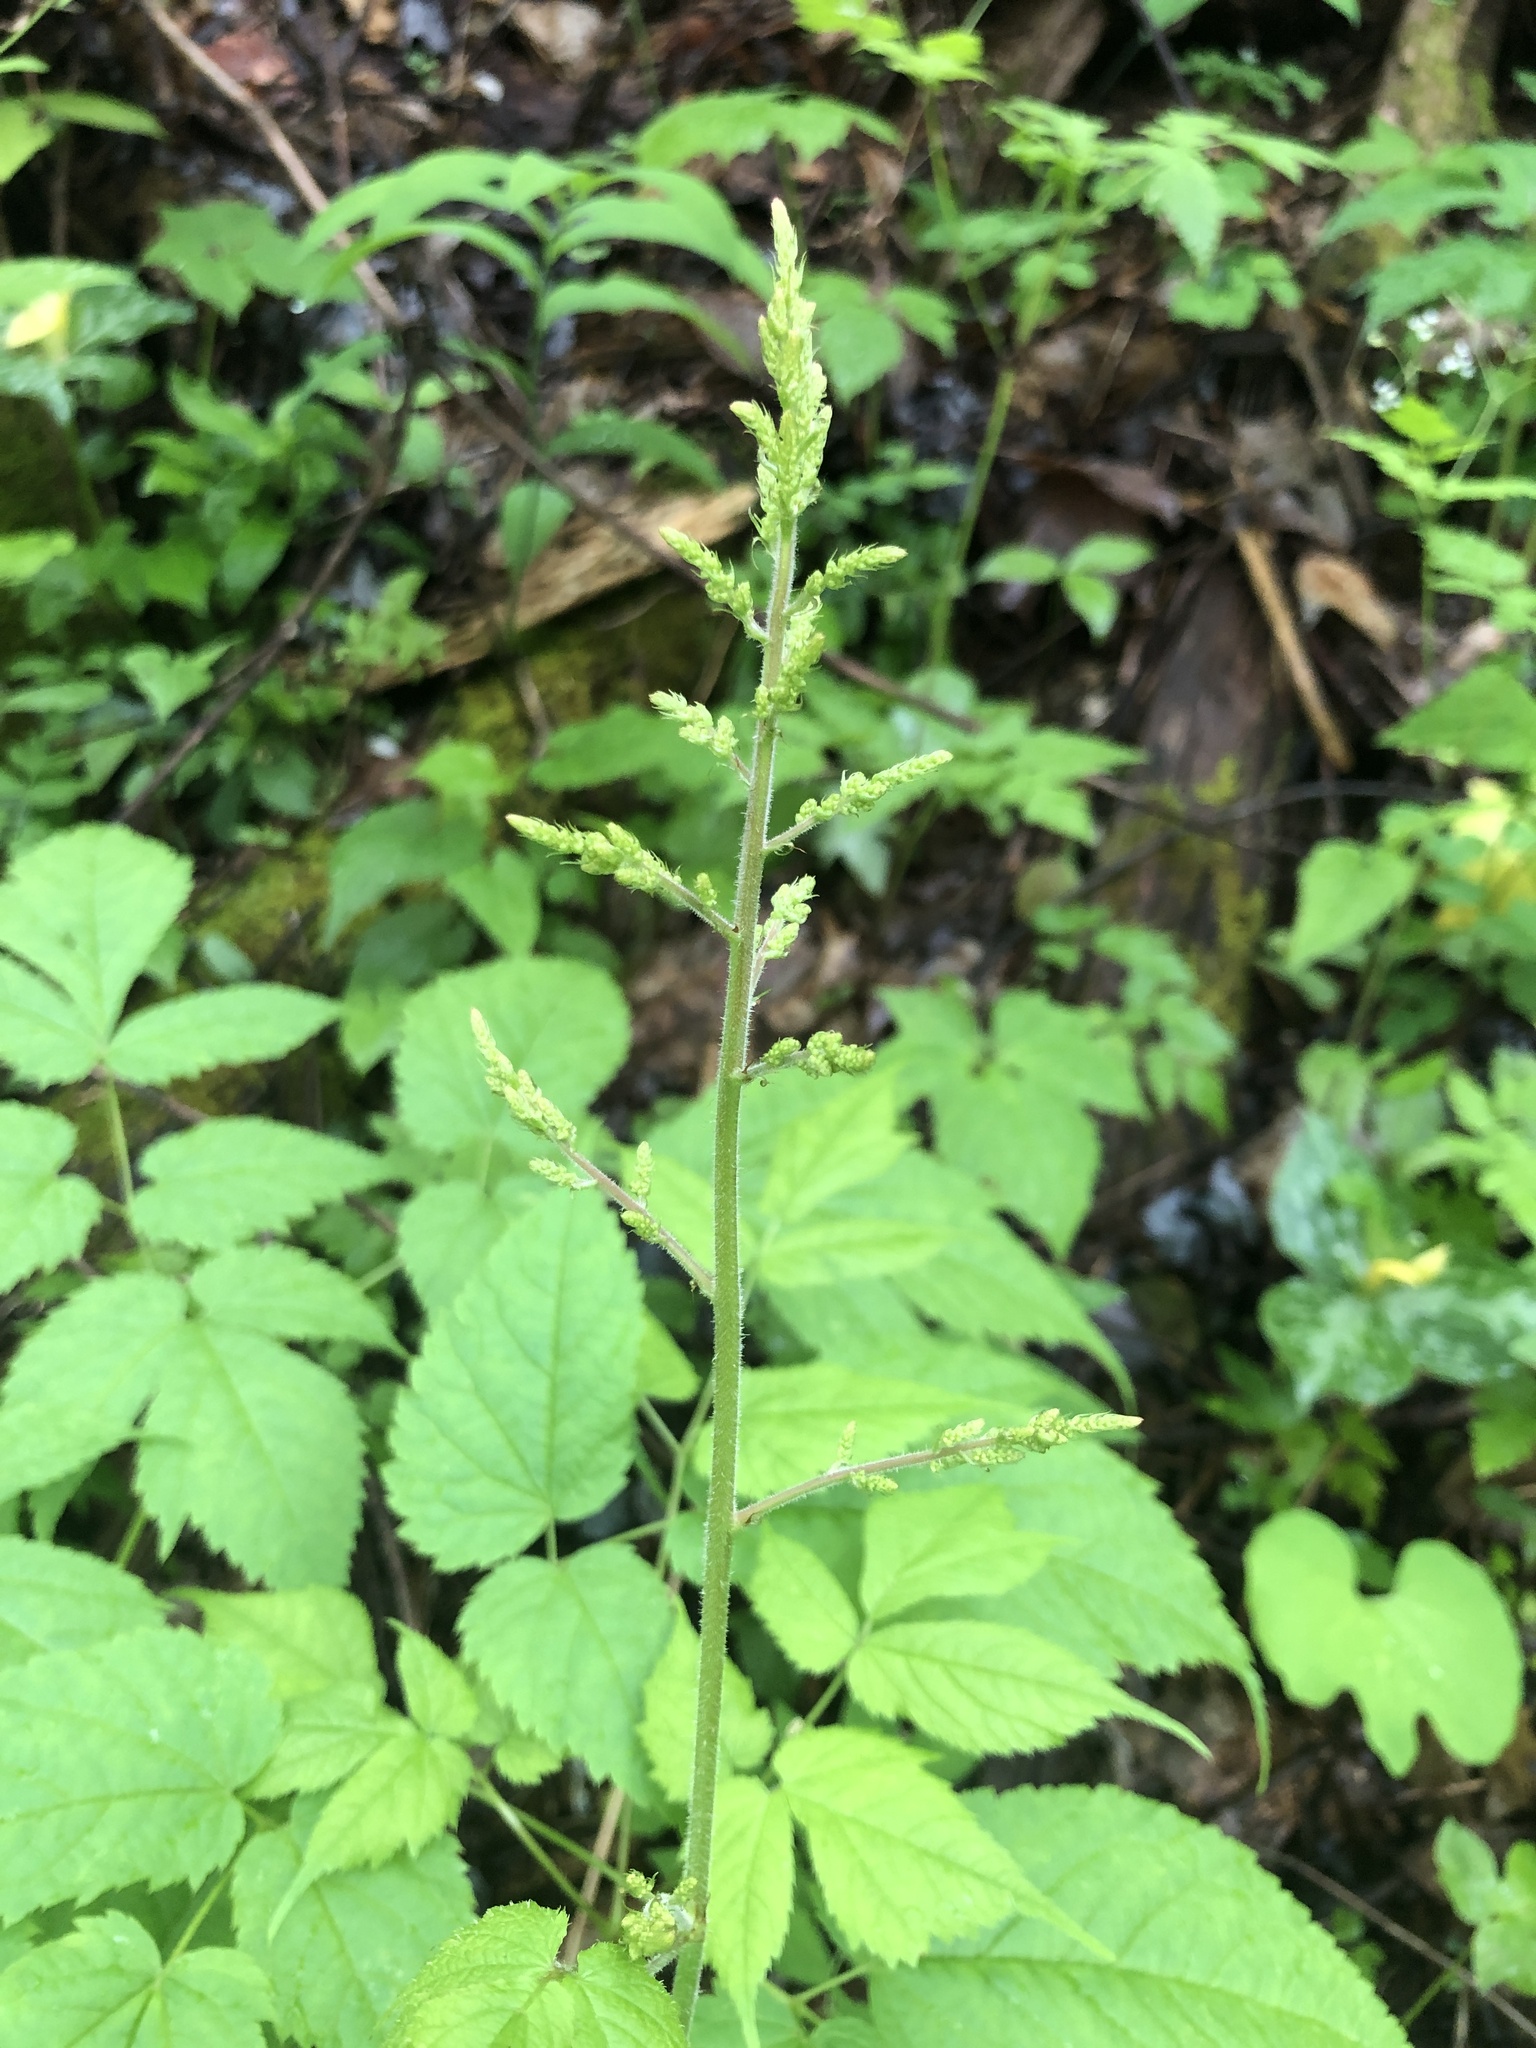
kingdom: Plantae
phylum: Tracheophyta
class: Magnoliopsida
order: Ranunculales
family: Ranunculaceae
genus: Actaea
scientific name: Actaea racemosa
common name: Black cohosh
